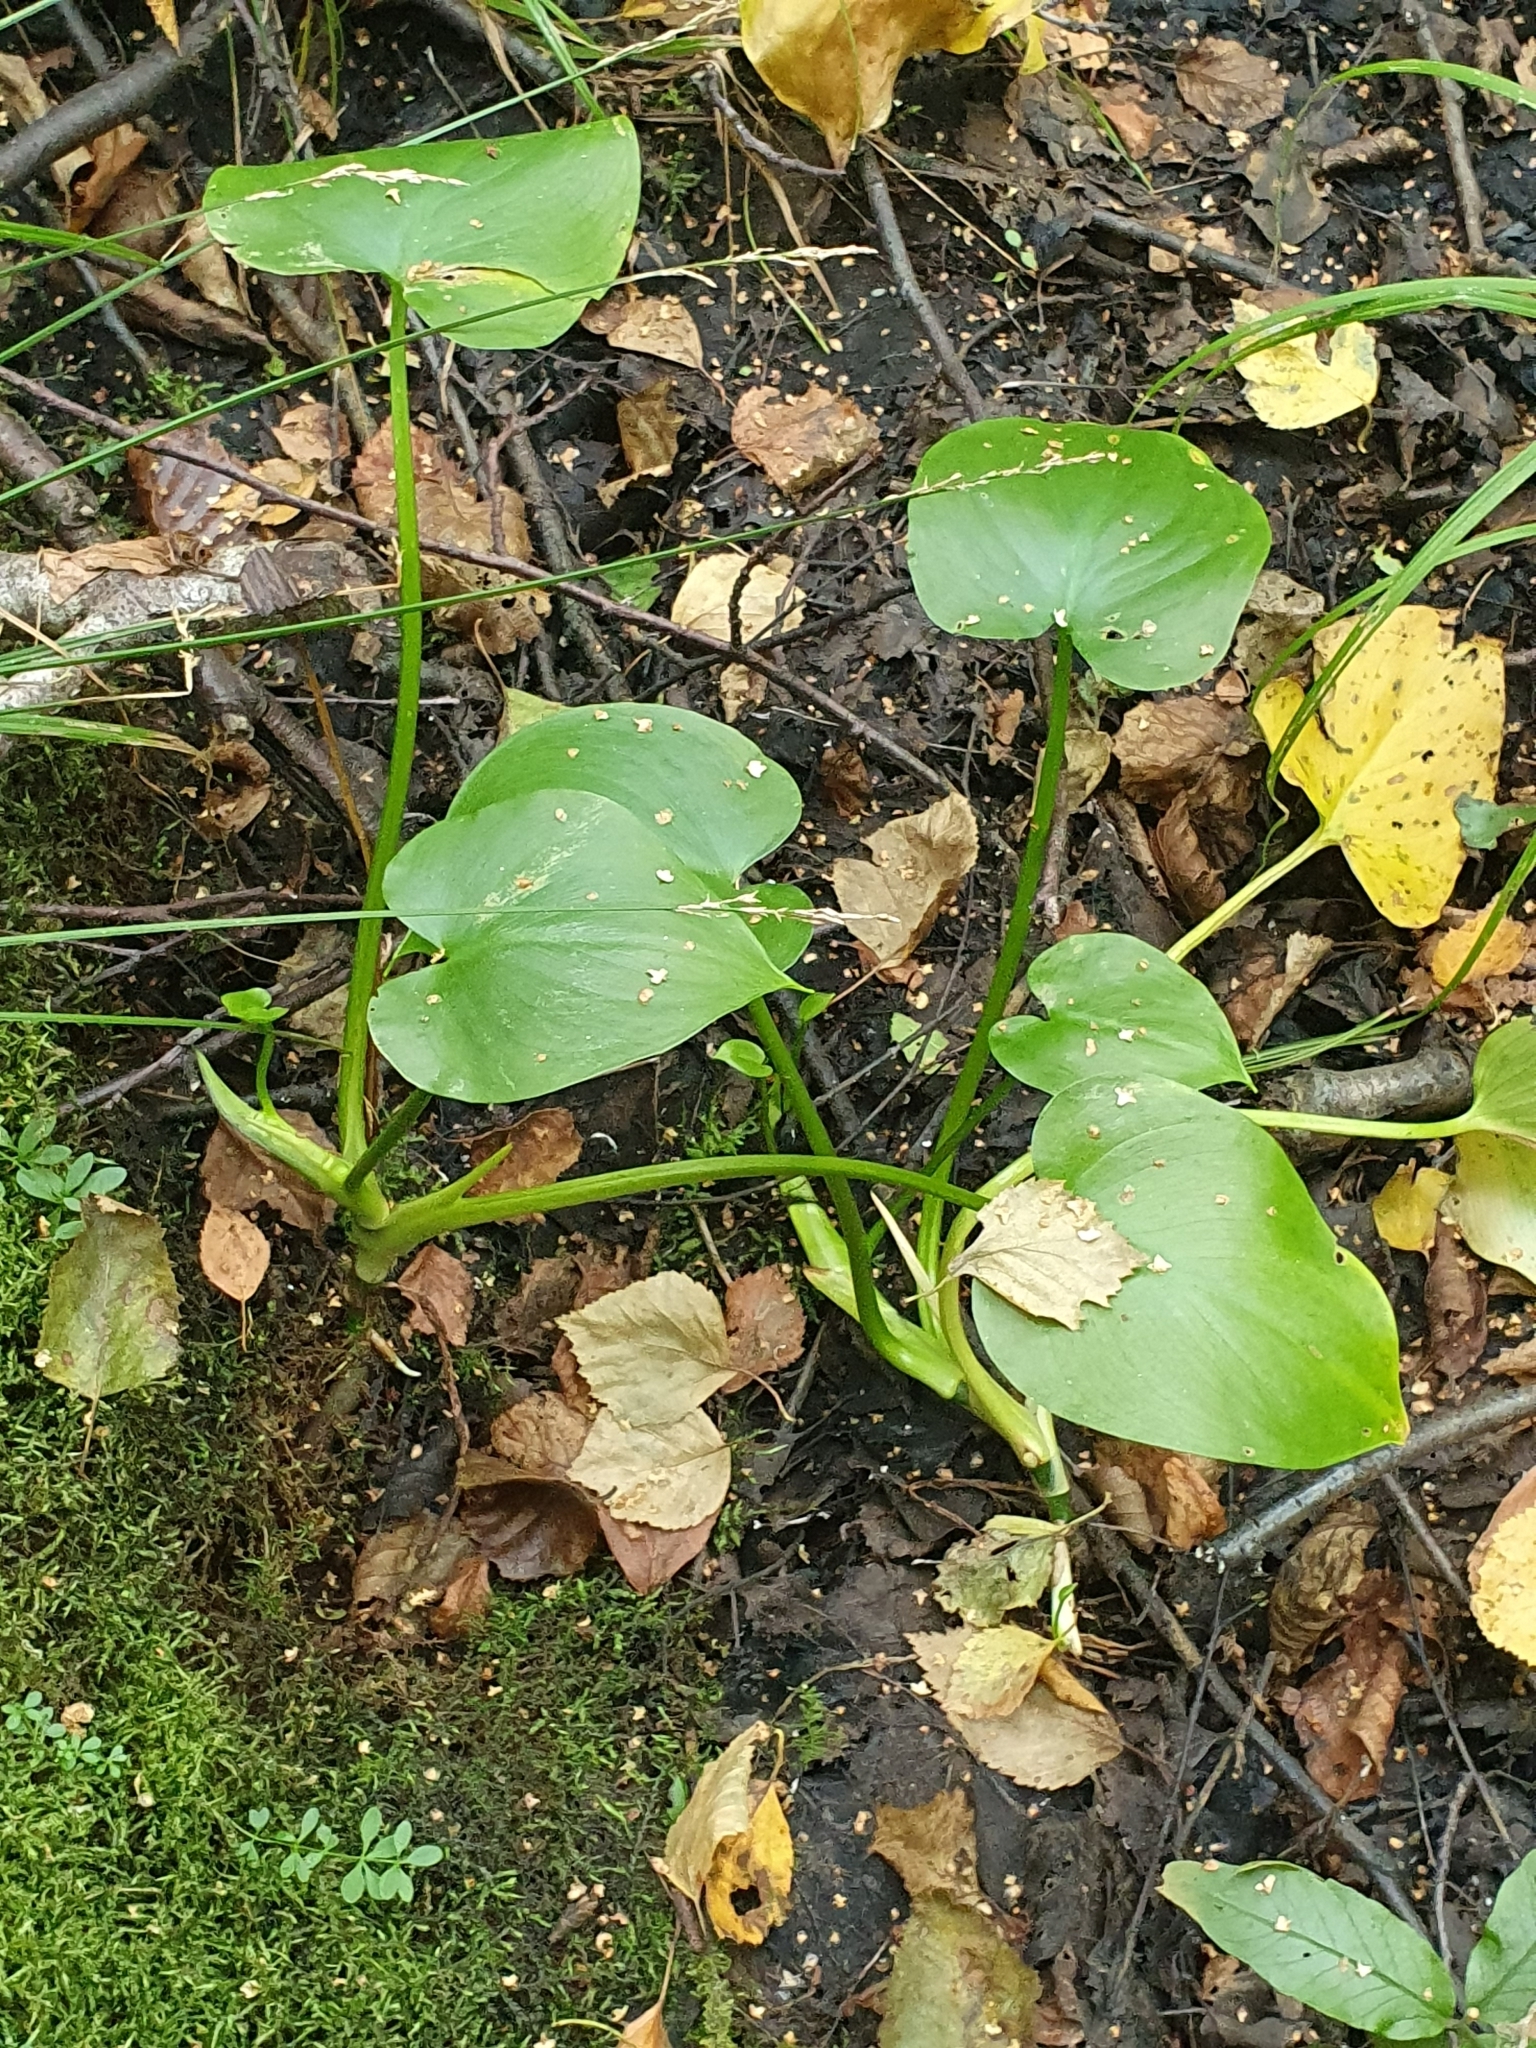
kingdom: Plantae
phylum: Tracheophyta
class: Liliopsida
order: Alismatales
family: Araceae
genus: Calla
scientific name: Calla palustris
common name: Bog arum
